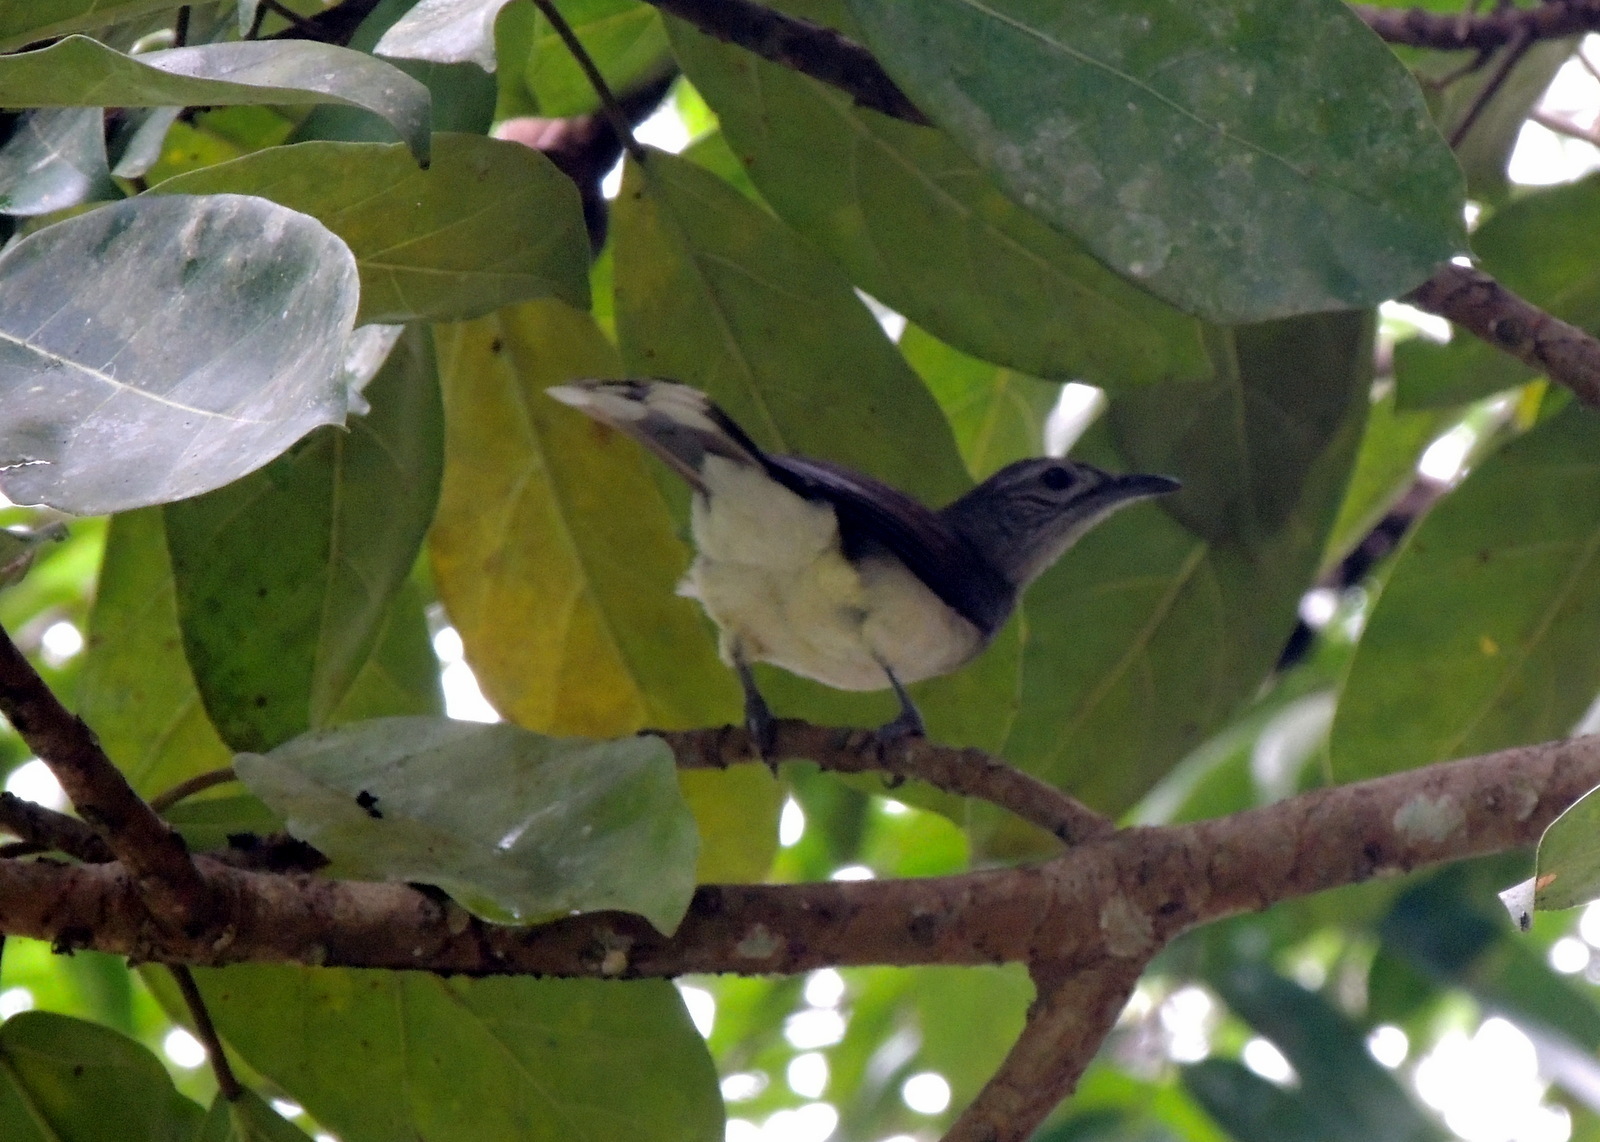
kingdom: Animalia
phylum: Chordata
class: Aves
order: Passeriformes
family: Pycnonotidae
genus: Thescelocichla
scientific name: Thescelocichla leucopleura
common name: Swamp palm bulbul
